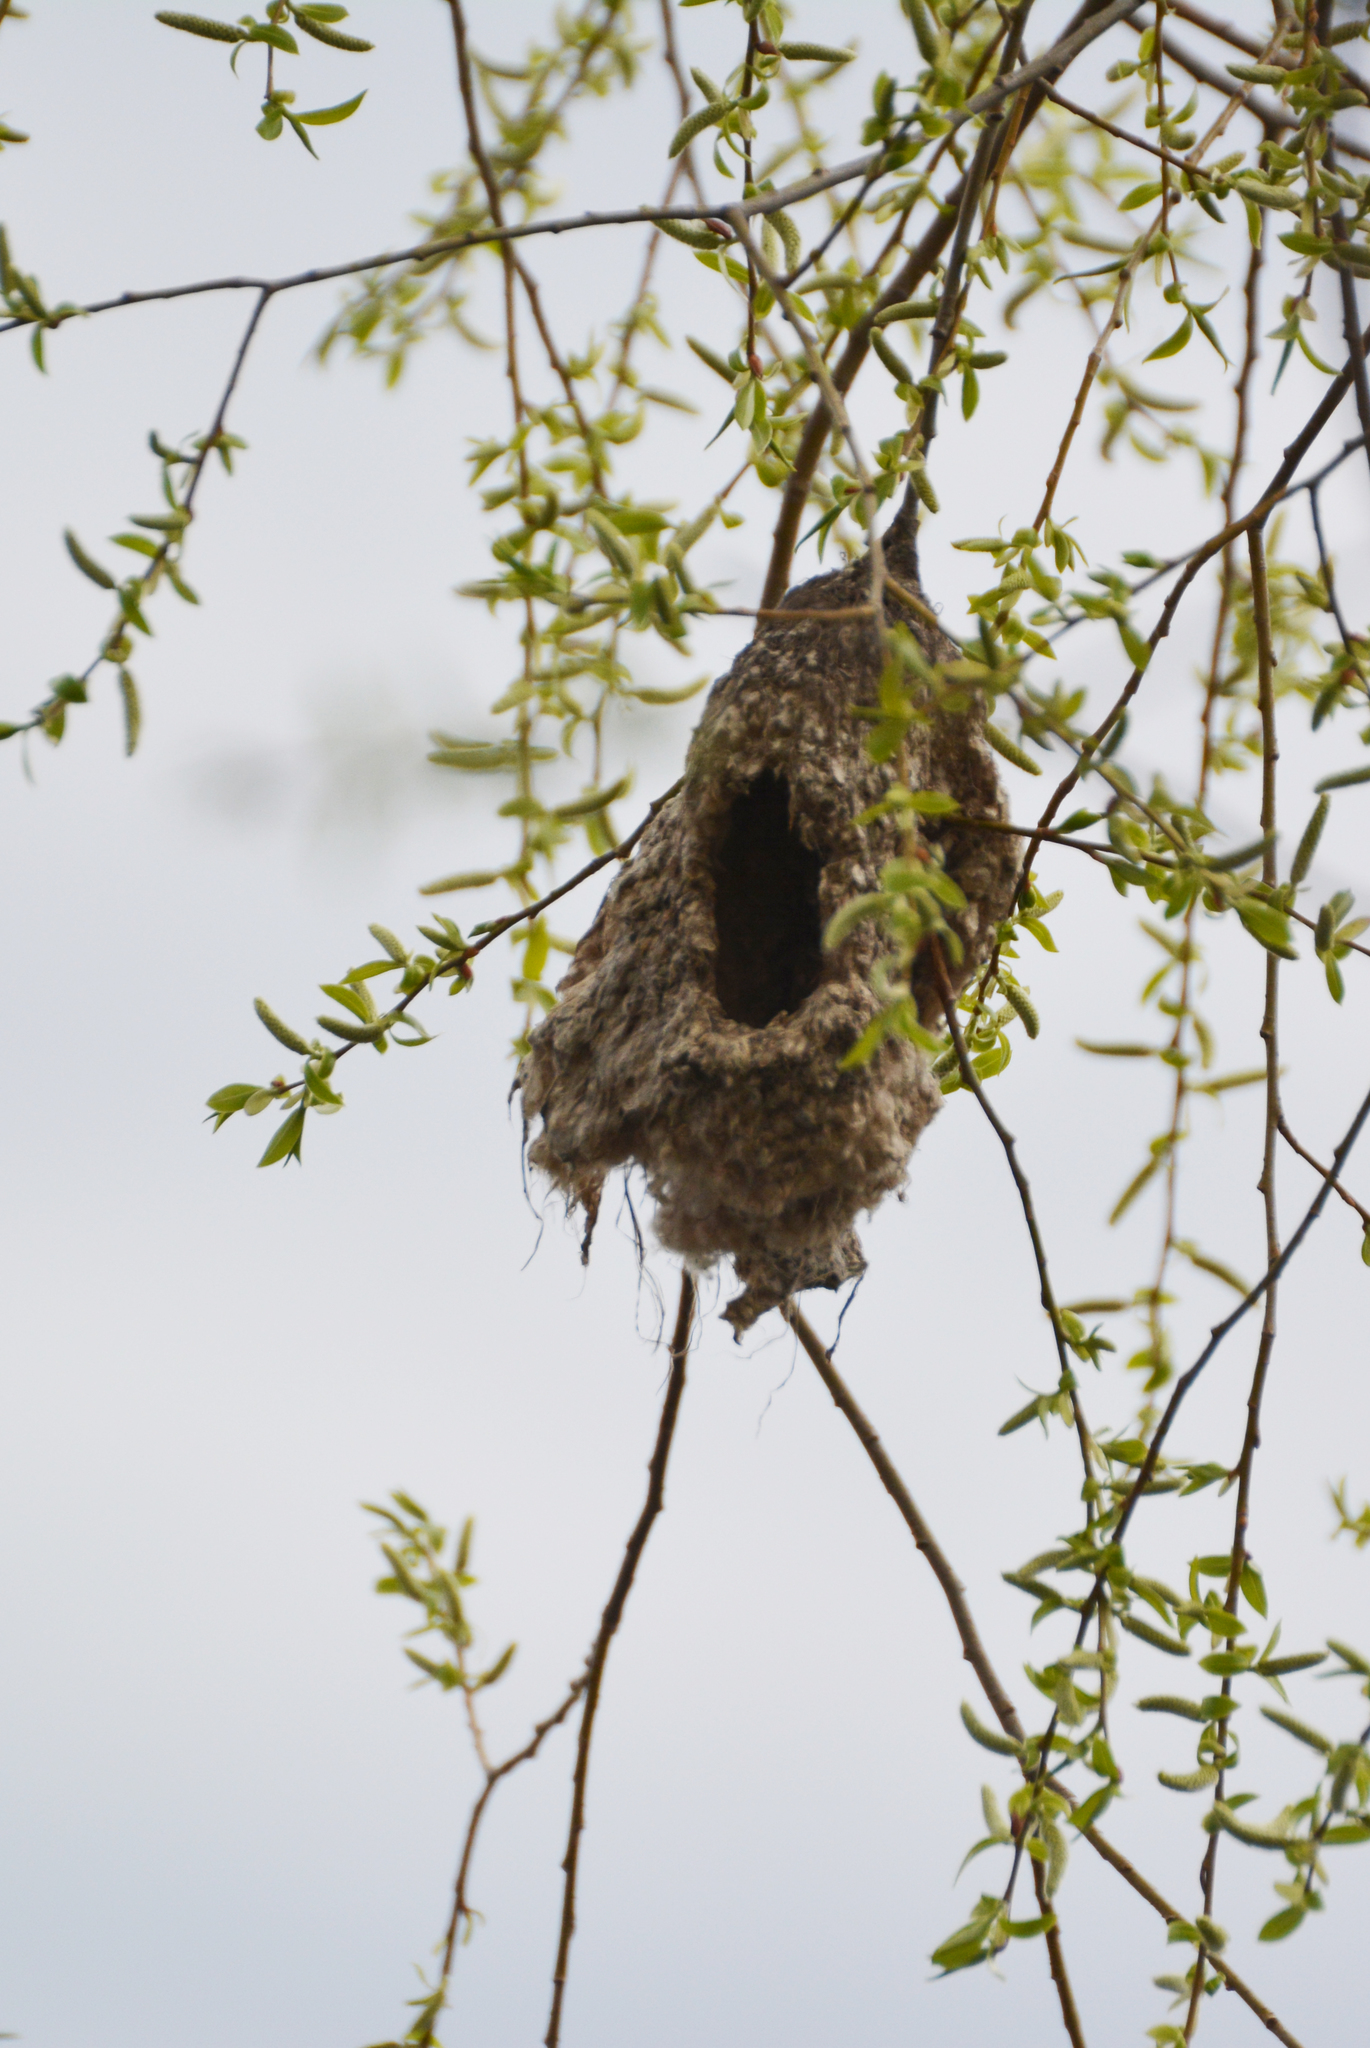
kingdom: Animalia
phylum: Chordata
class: Aves
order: Passeriformes
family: Remizidae
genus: Remiz
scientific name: Remiz pendulinus
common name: Eurasian penduline tit
